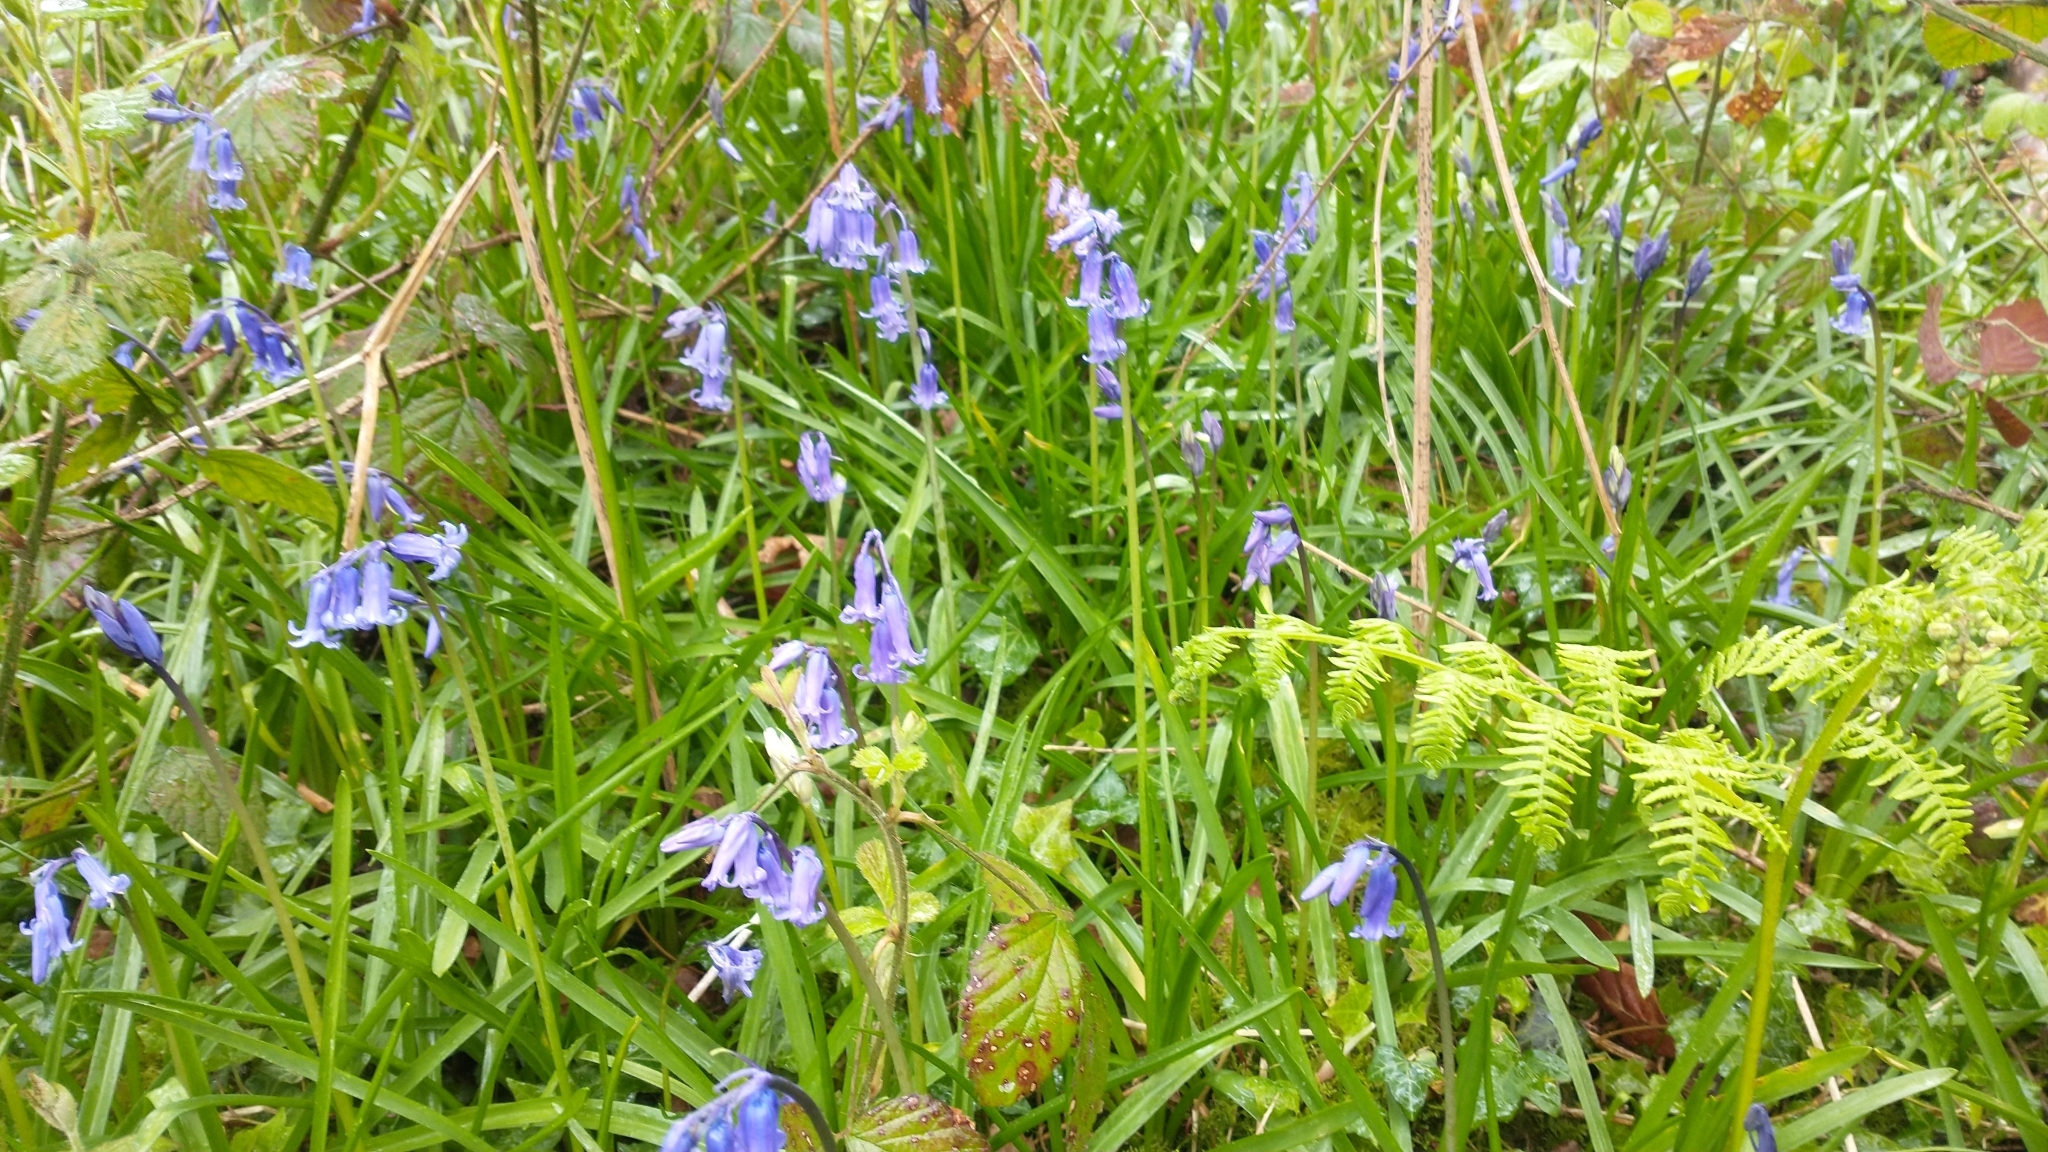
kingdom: Plantae
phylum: Tracheophyta
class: Liliopsida
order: Asparagales
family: Asparagaceae
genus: Hyacinthoides
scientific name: Hyacinthoides non-scripta
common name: Bluebell
